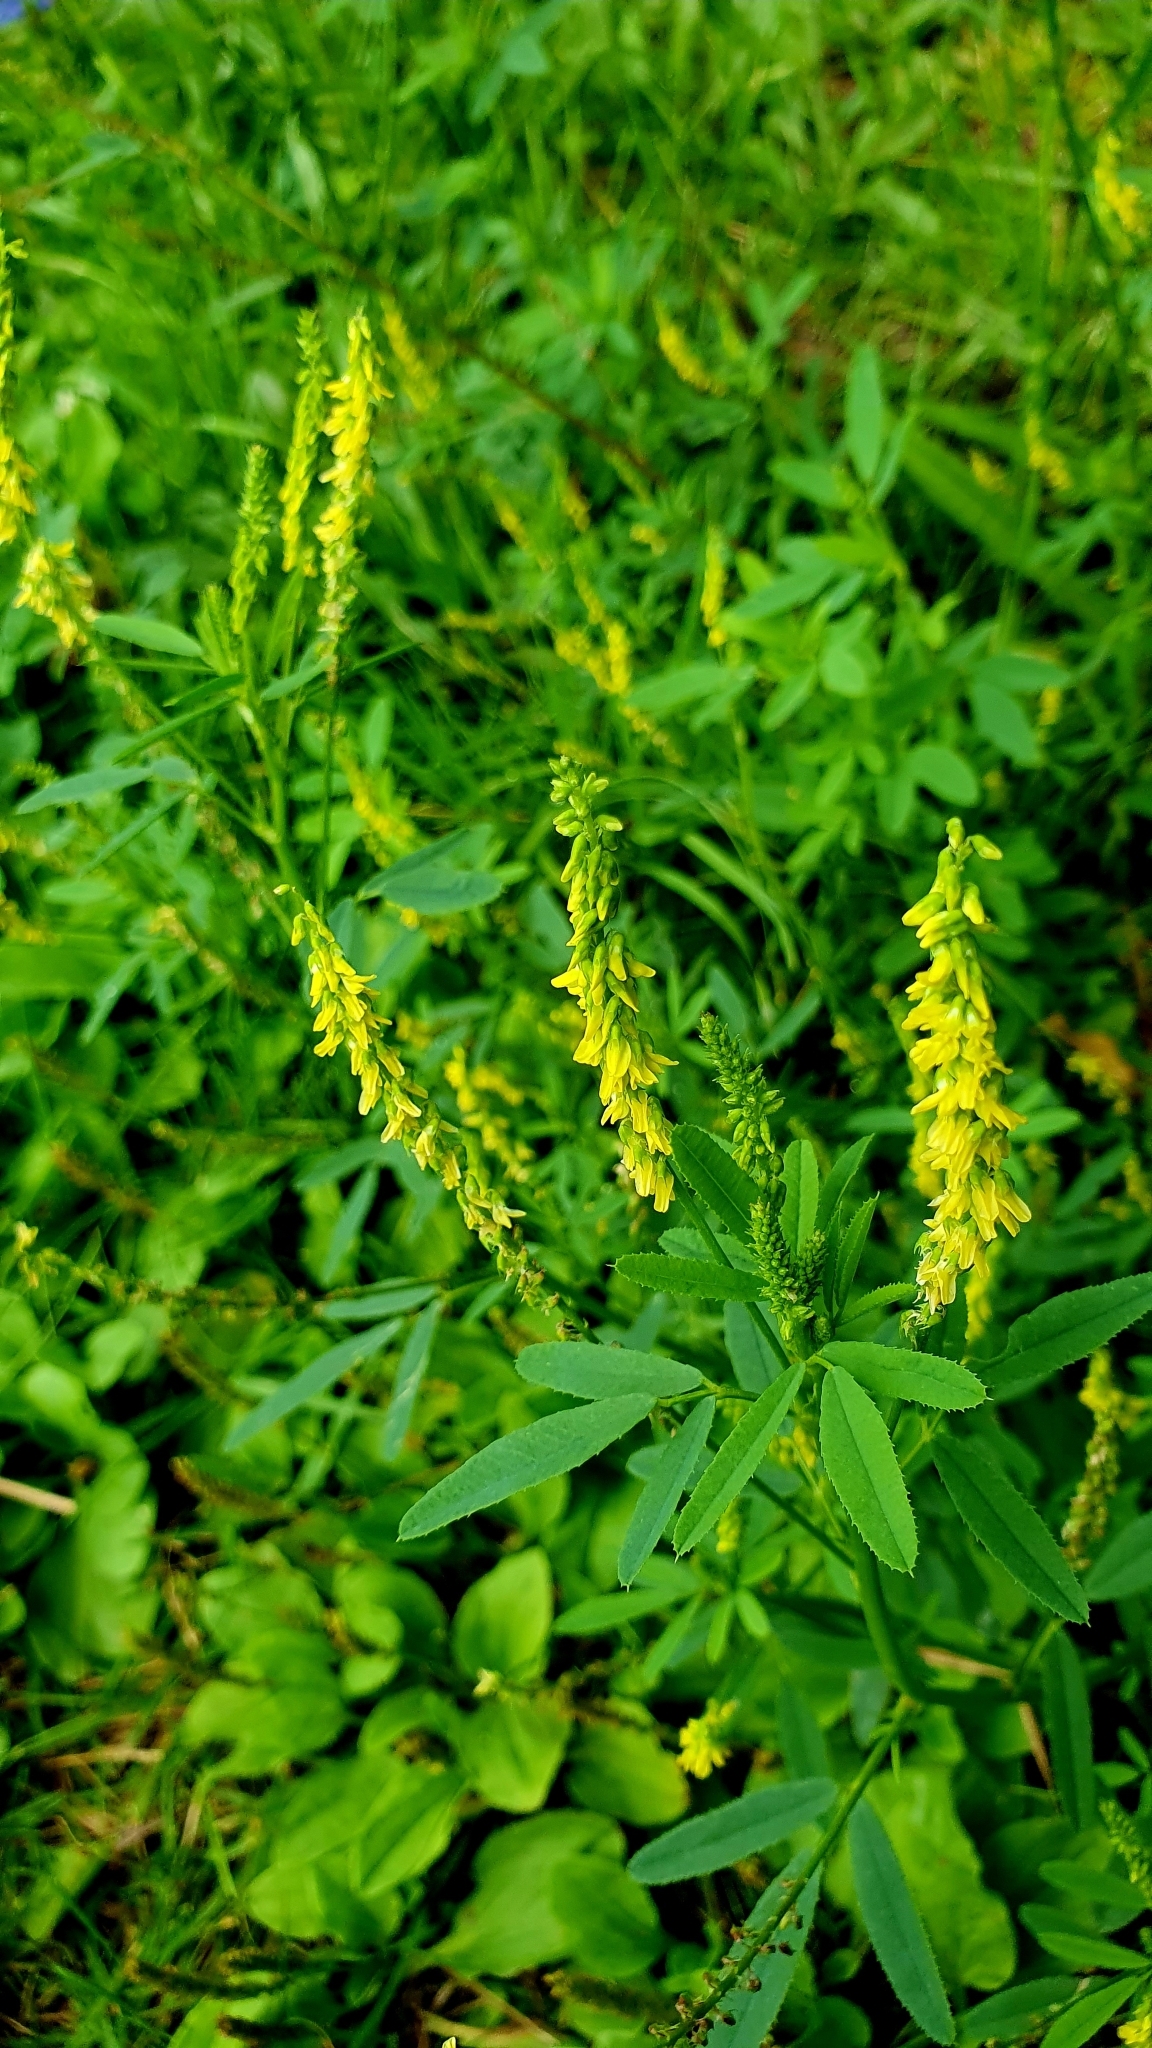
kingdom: Plantae
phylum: Tracheophyta
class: Magnoliopsida
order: Fabales
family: Fabaceae
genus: Melilotus
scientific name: Melilotus officinalis
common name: Sweetclover
